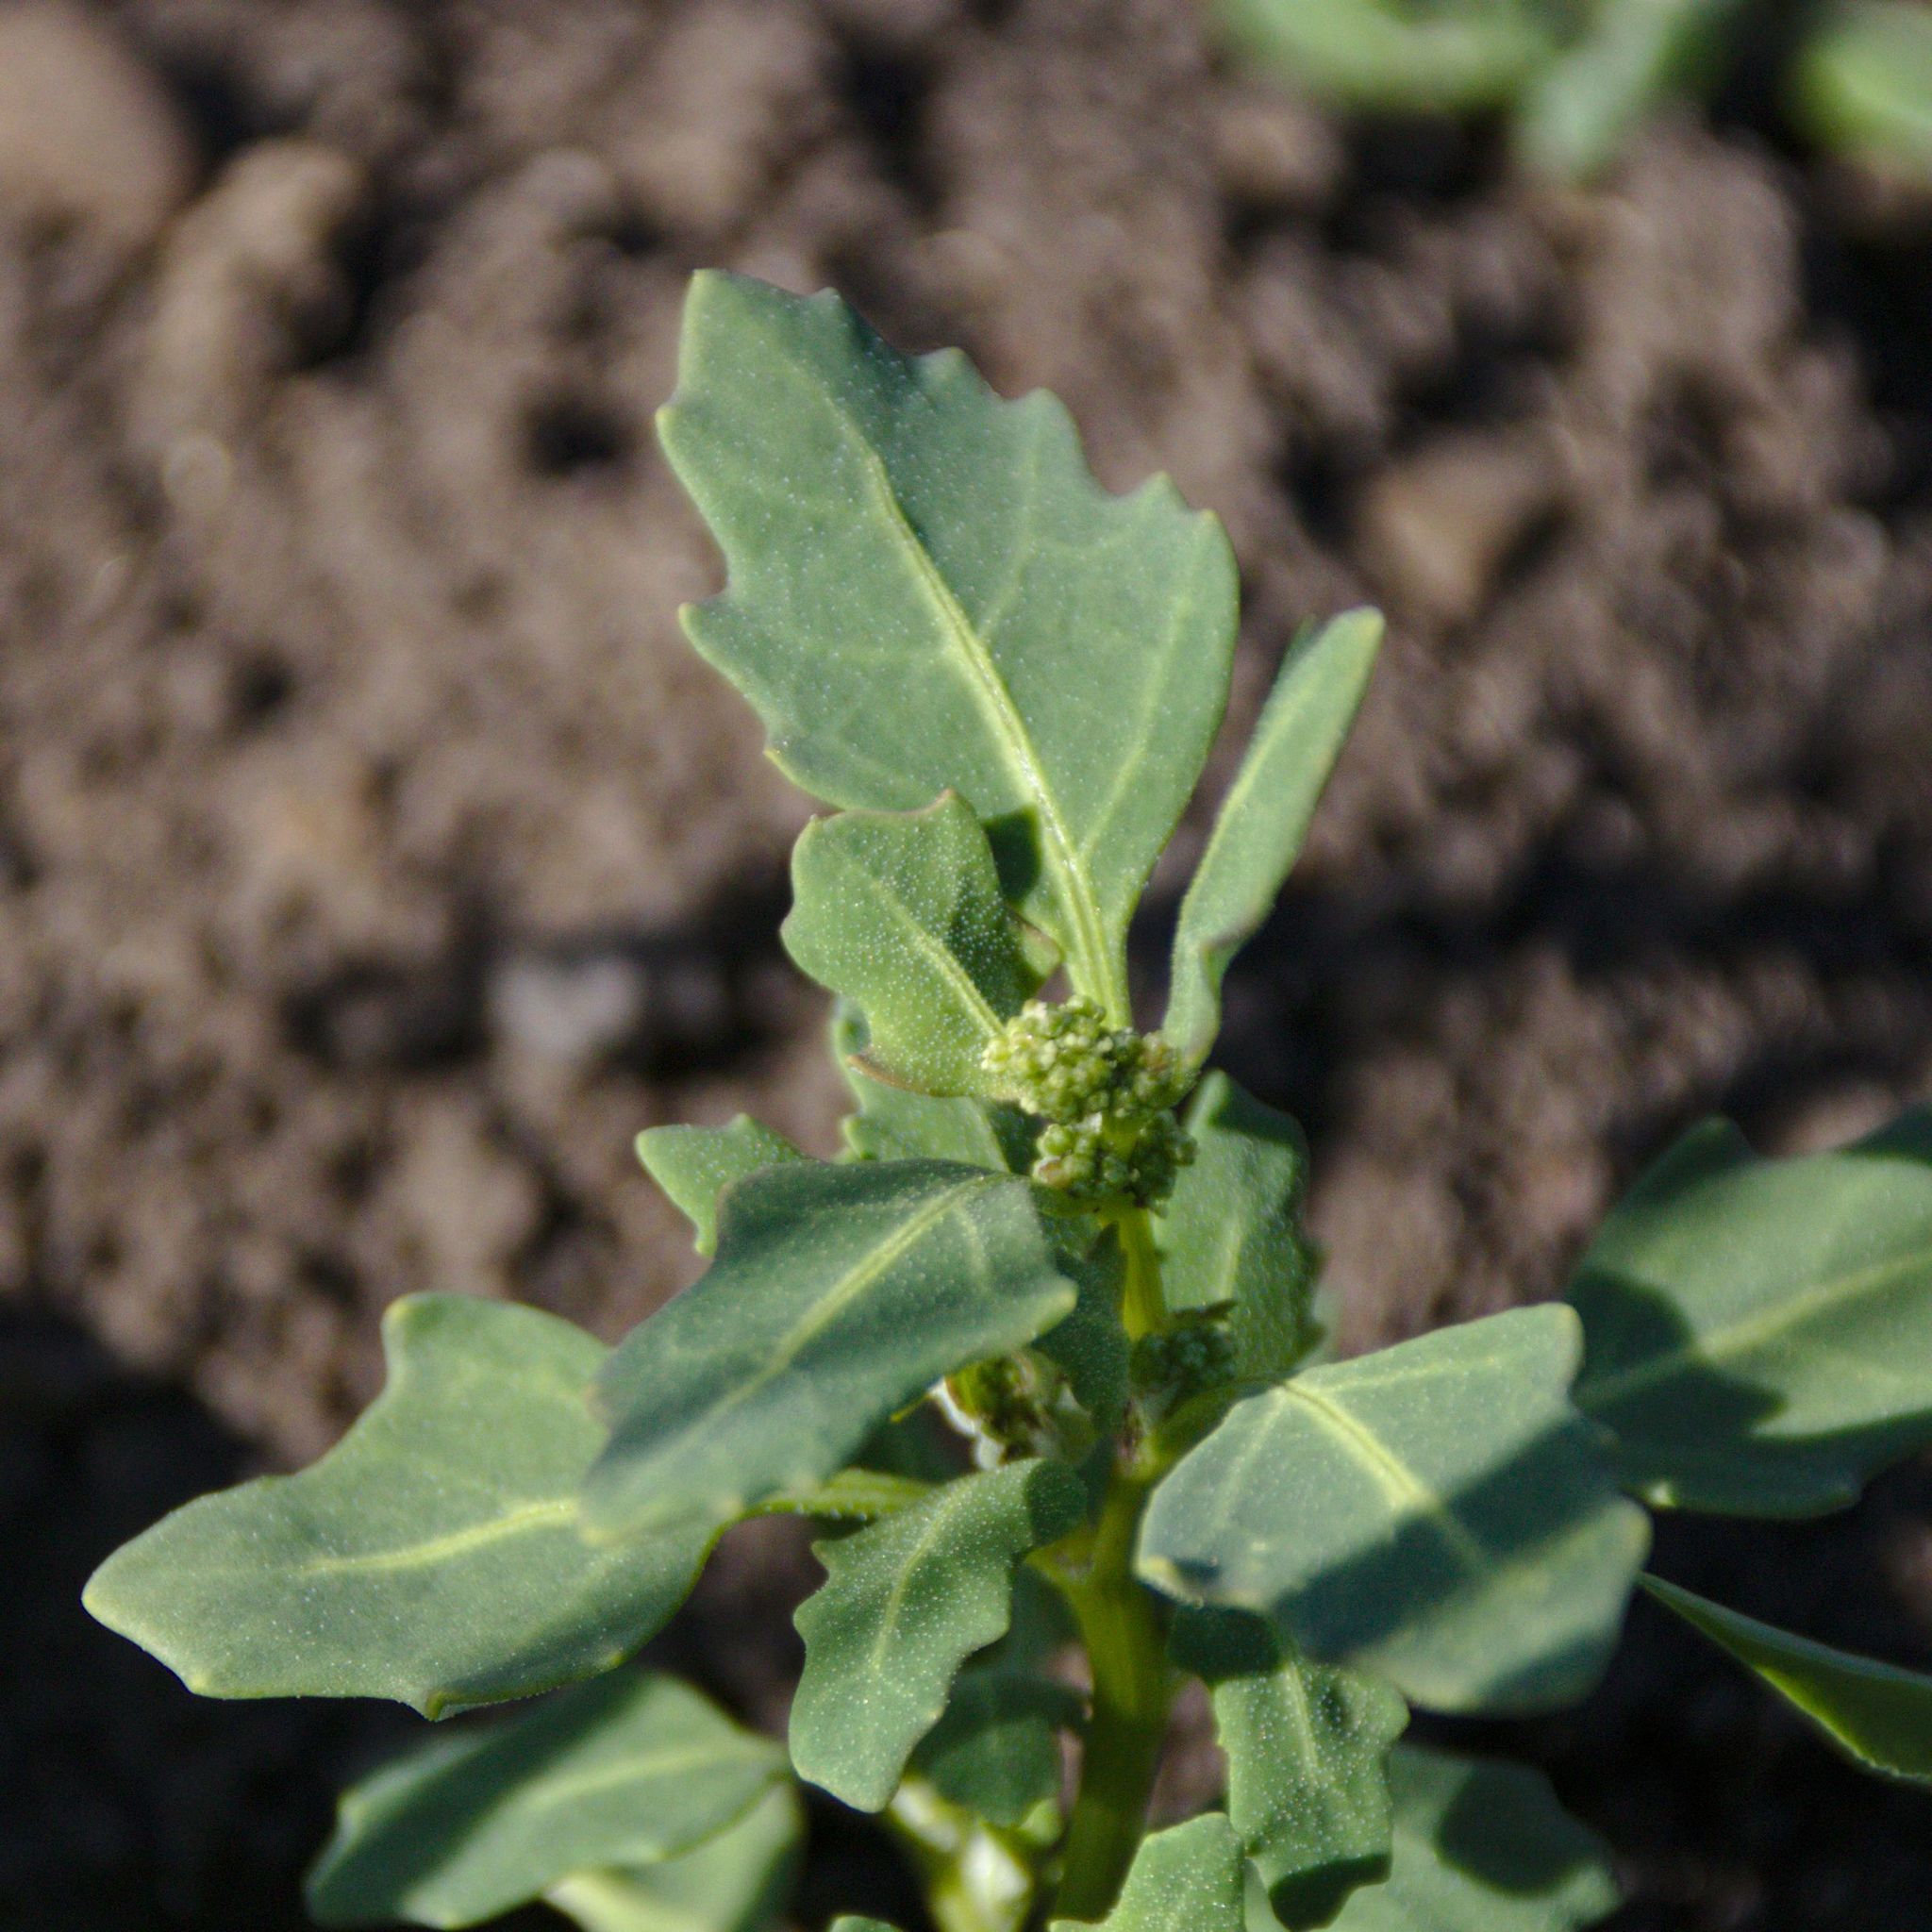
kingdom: Plantae
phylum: Tracheophyta
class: Magnoliopsida
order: Caryophyllales
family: Amaranthaceae
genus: Oxybasis
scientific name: Oxybasis glauca
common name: Glaucous goosefoot
